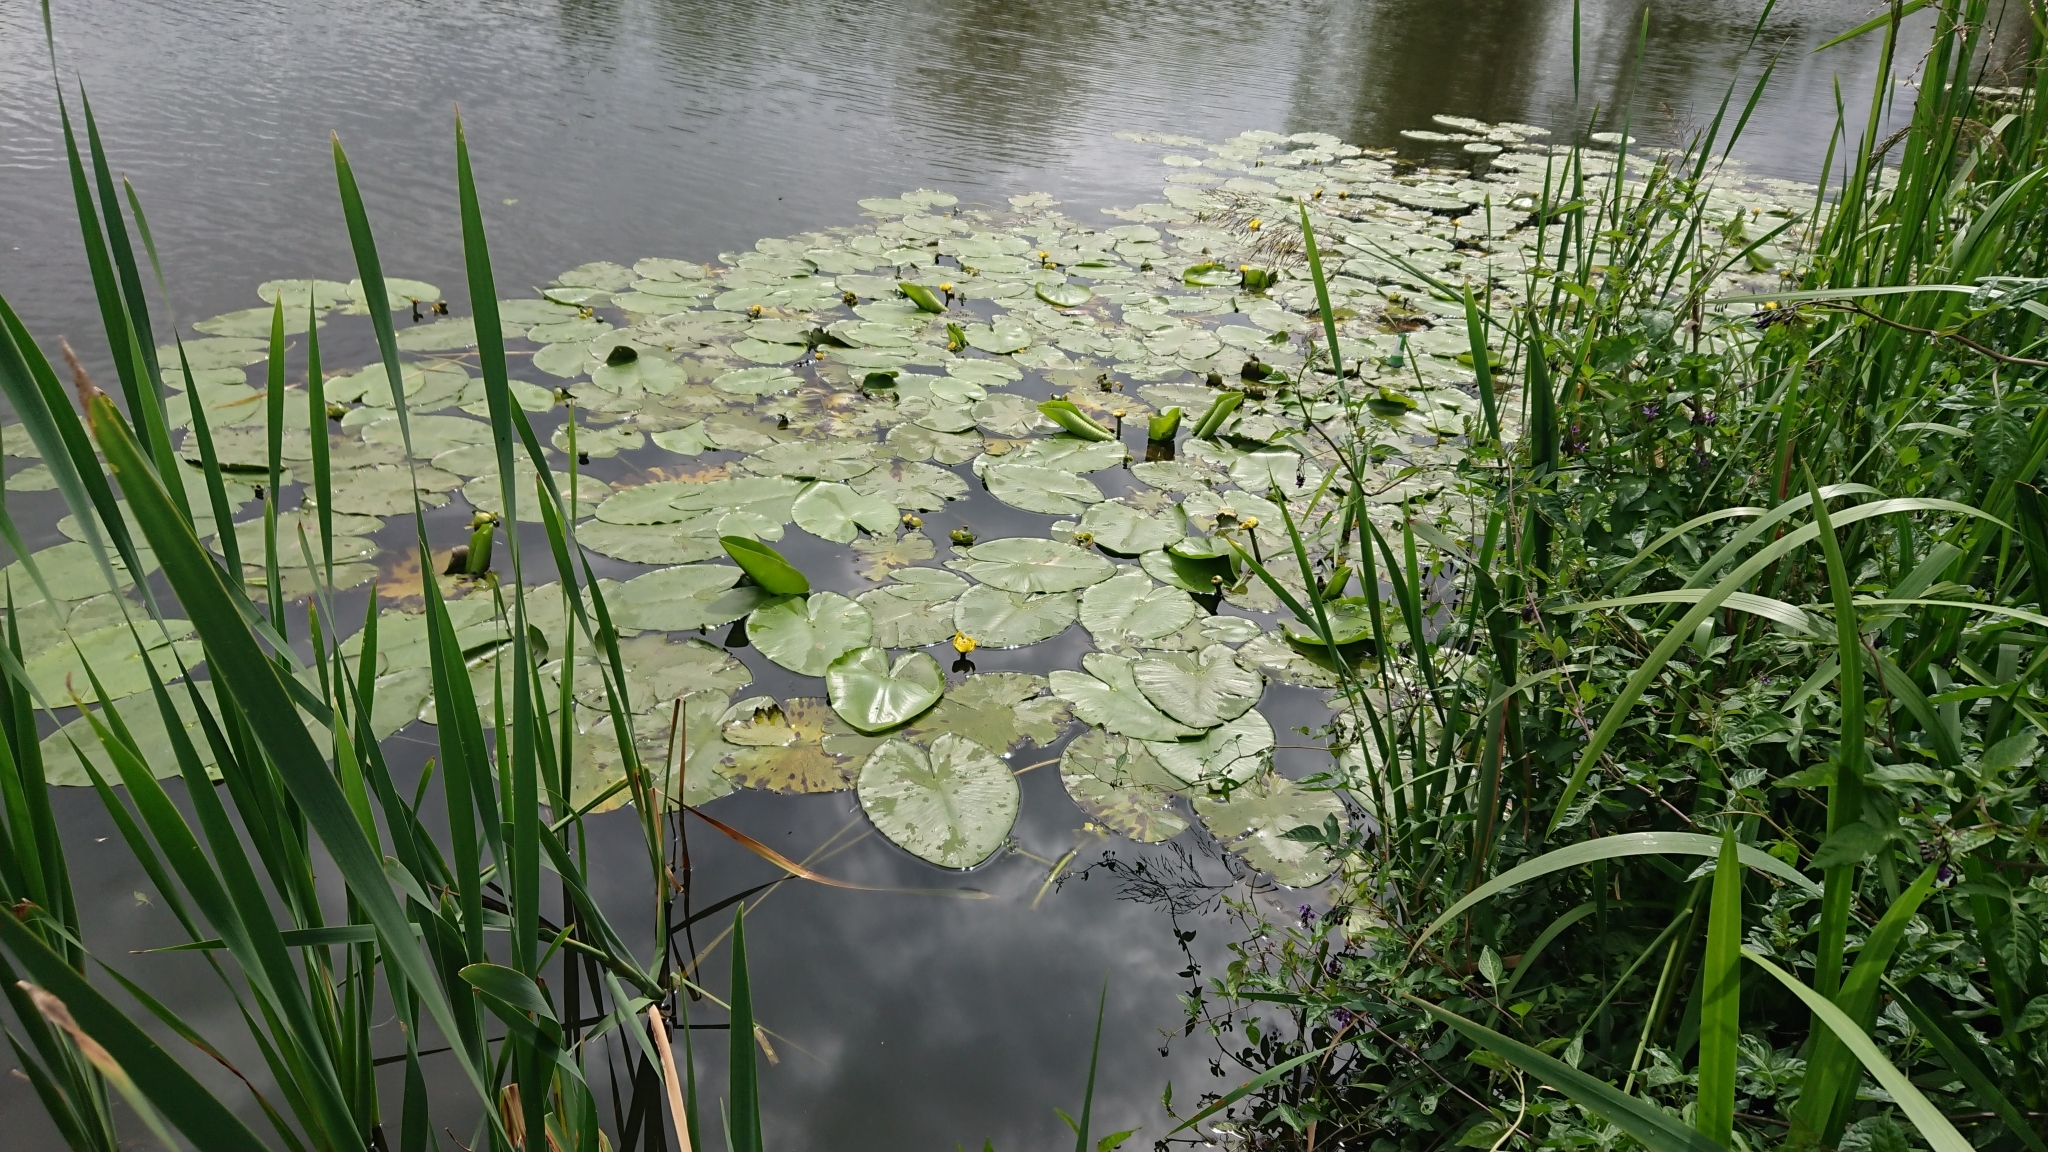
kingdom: Plantae
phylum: Tracheophyta
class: Magnoliopsida
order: Nymphaeales
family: Nymphaeaceae
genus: Nuphar
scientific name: Nuphar lutea
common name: Yellow water-lily
